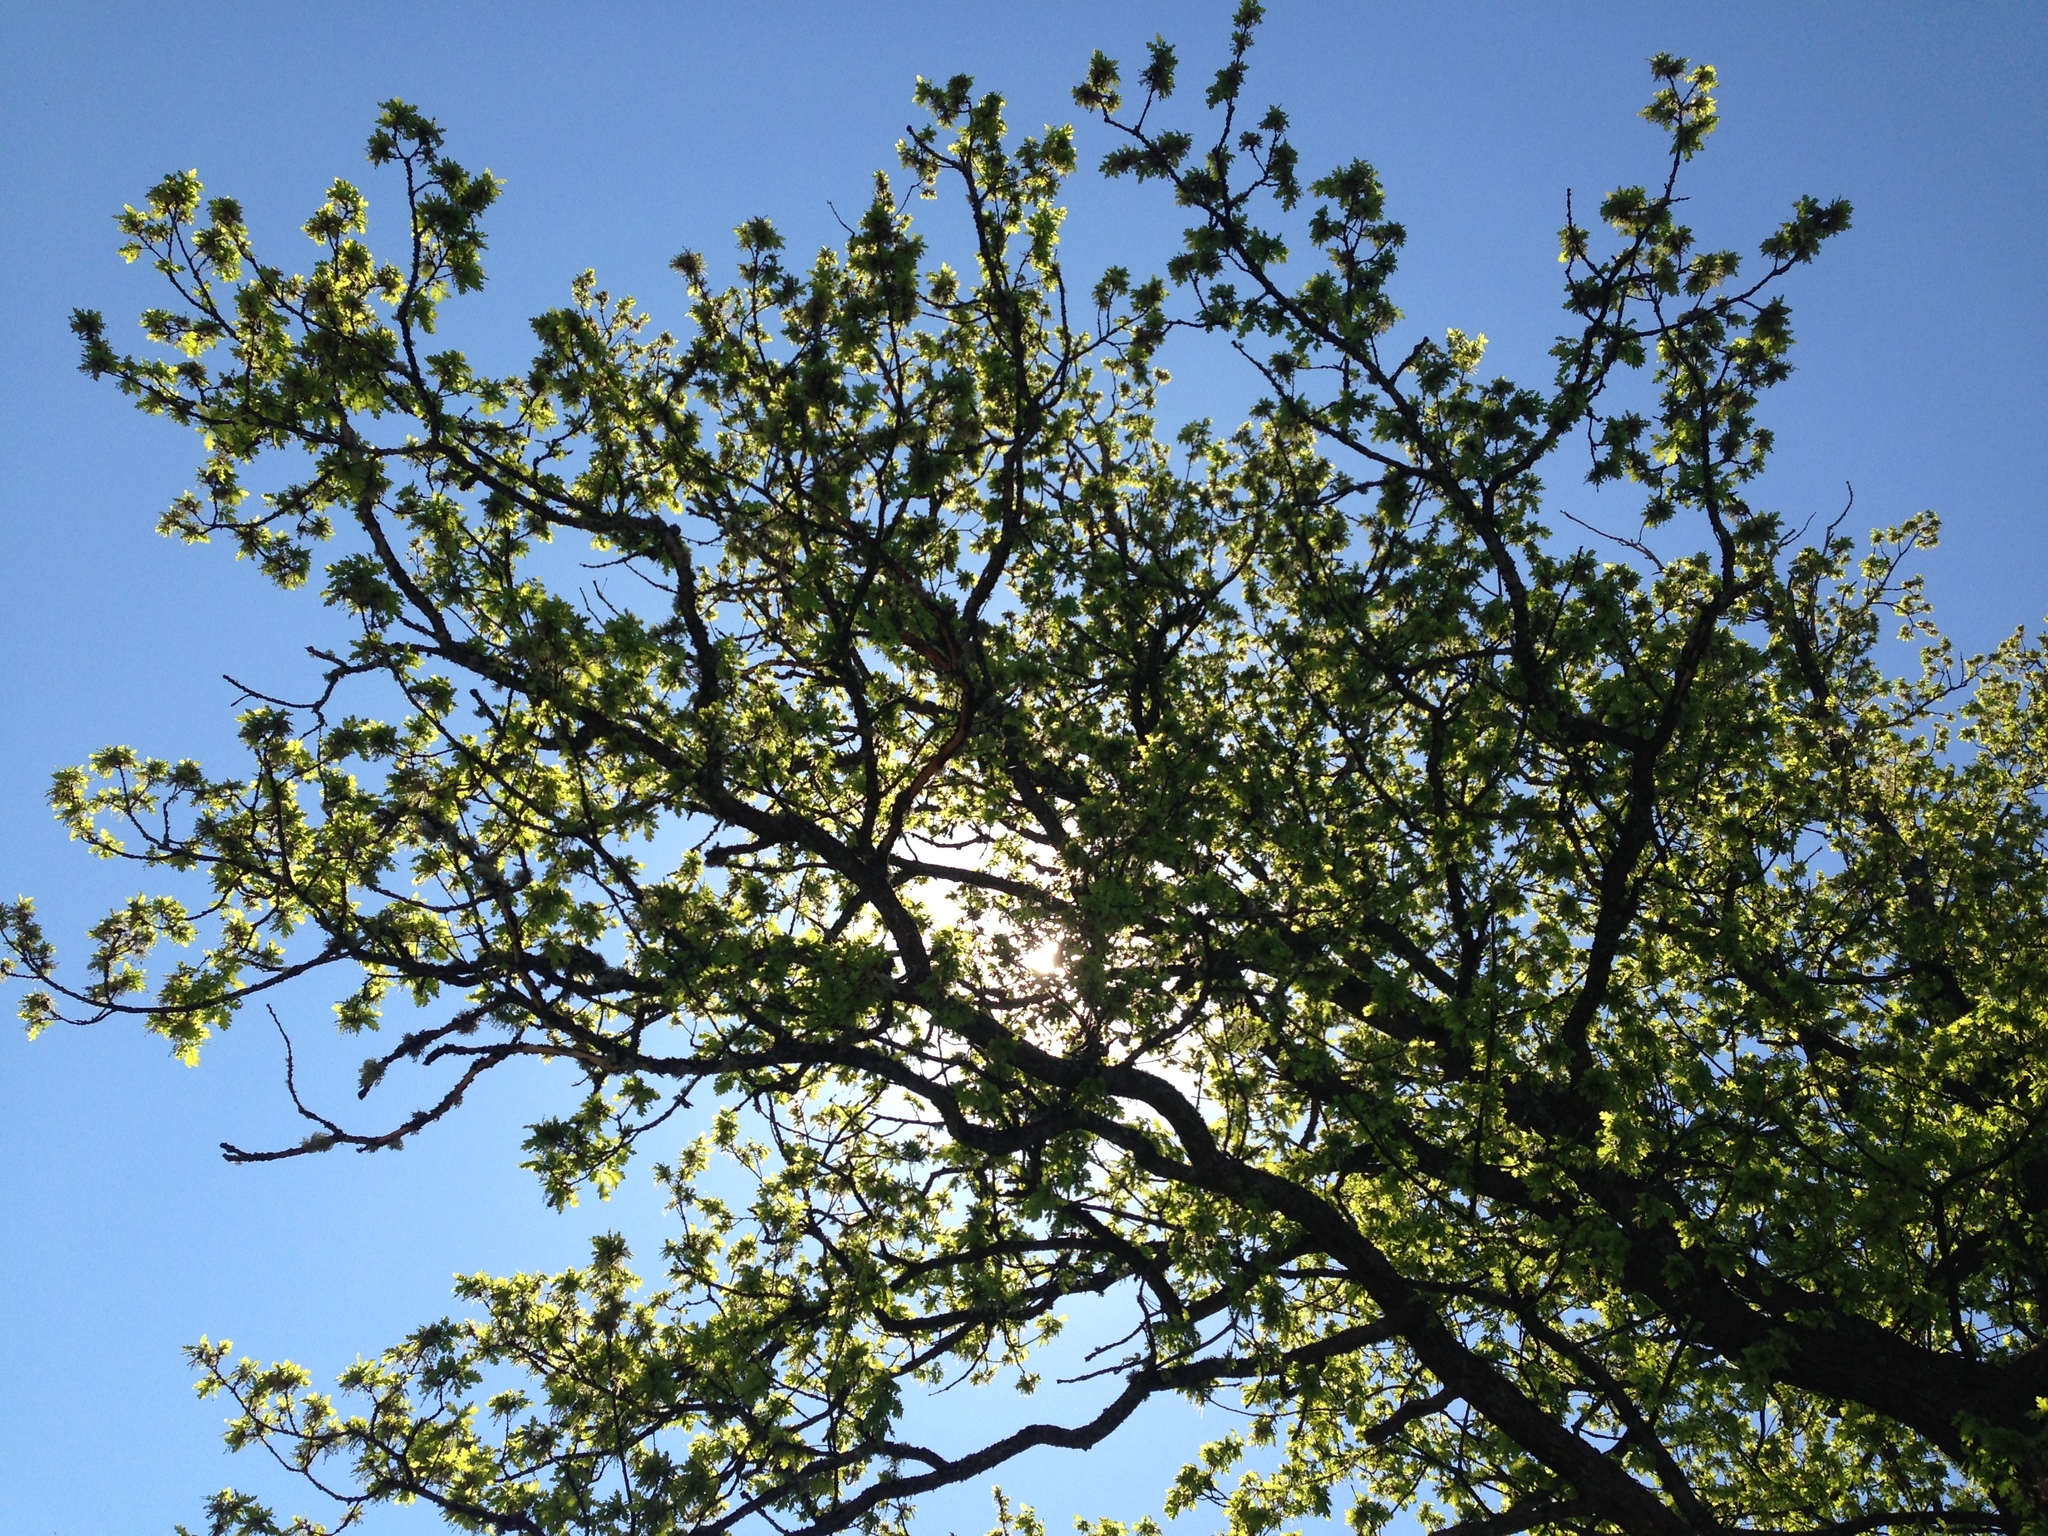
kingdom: Plantae
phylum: Tracheophyta
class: Magnoliopsida
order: Fagales
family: Fagaceae
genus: Quercus
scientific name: Quercus robur
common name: Pedunculate oak
